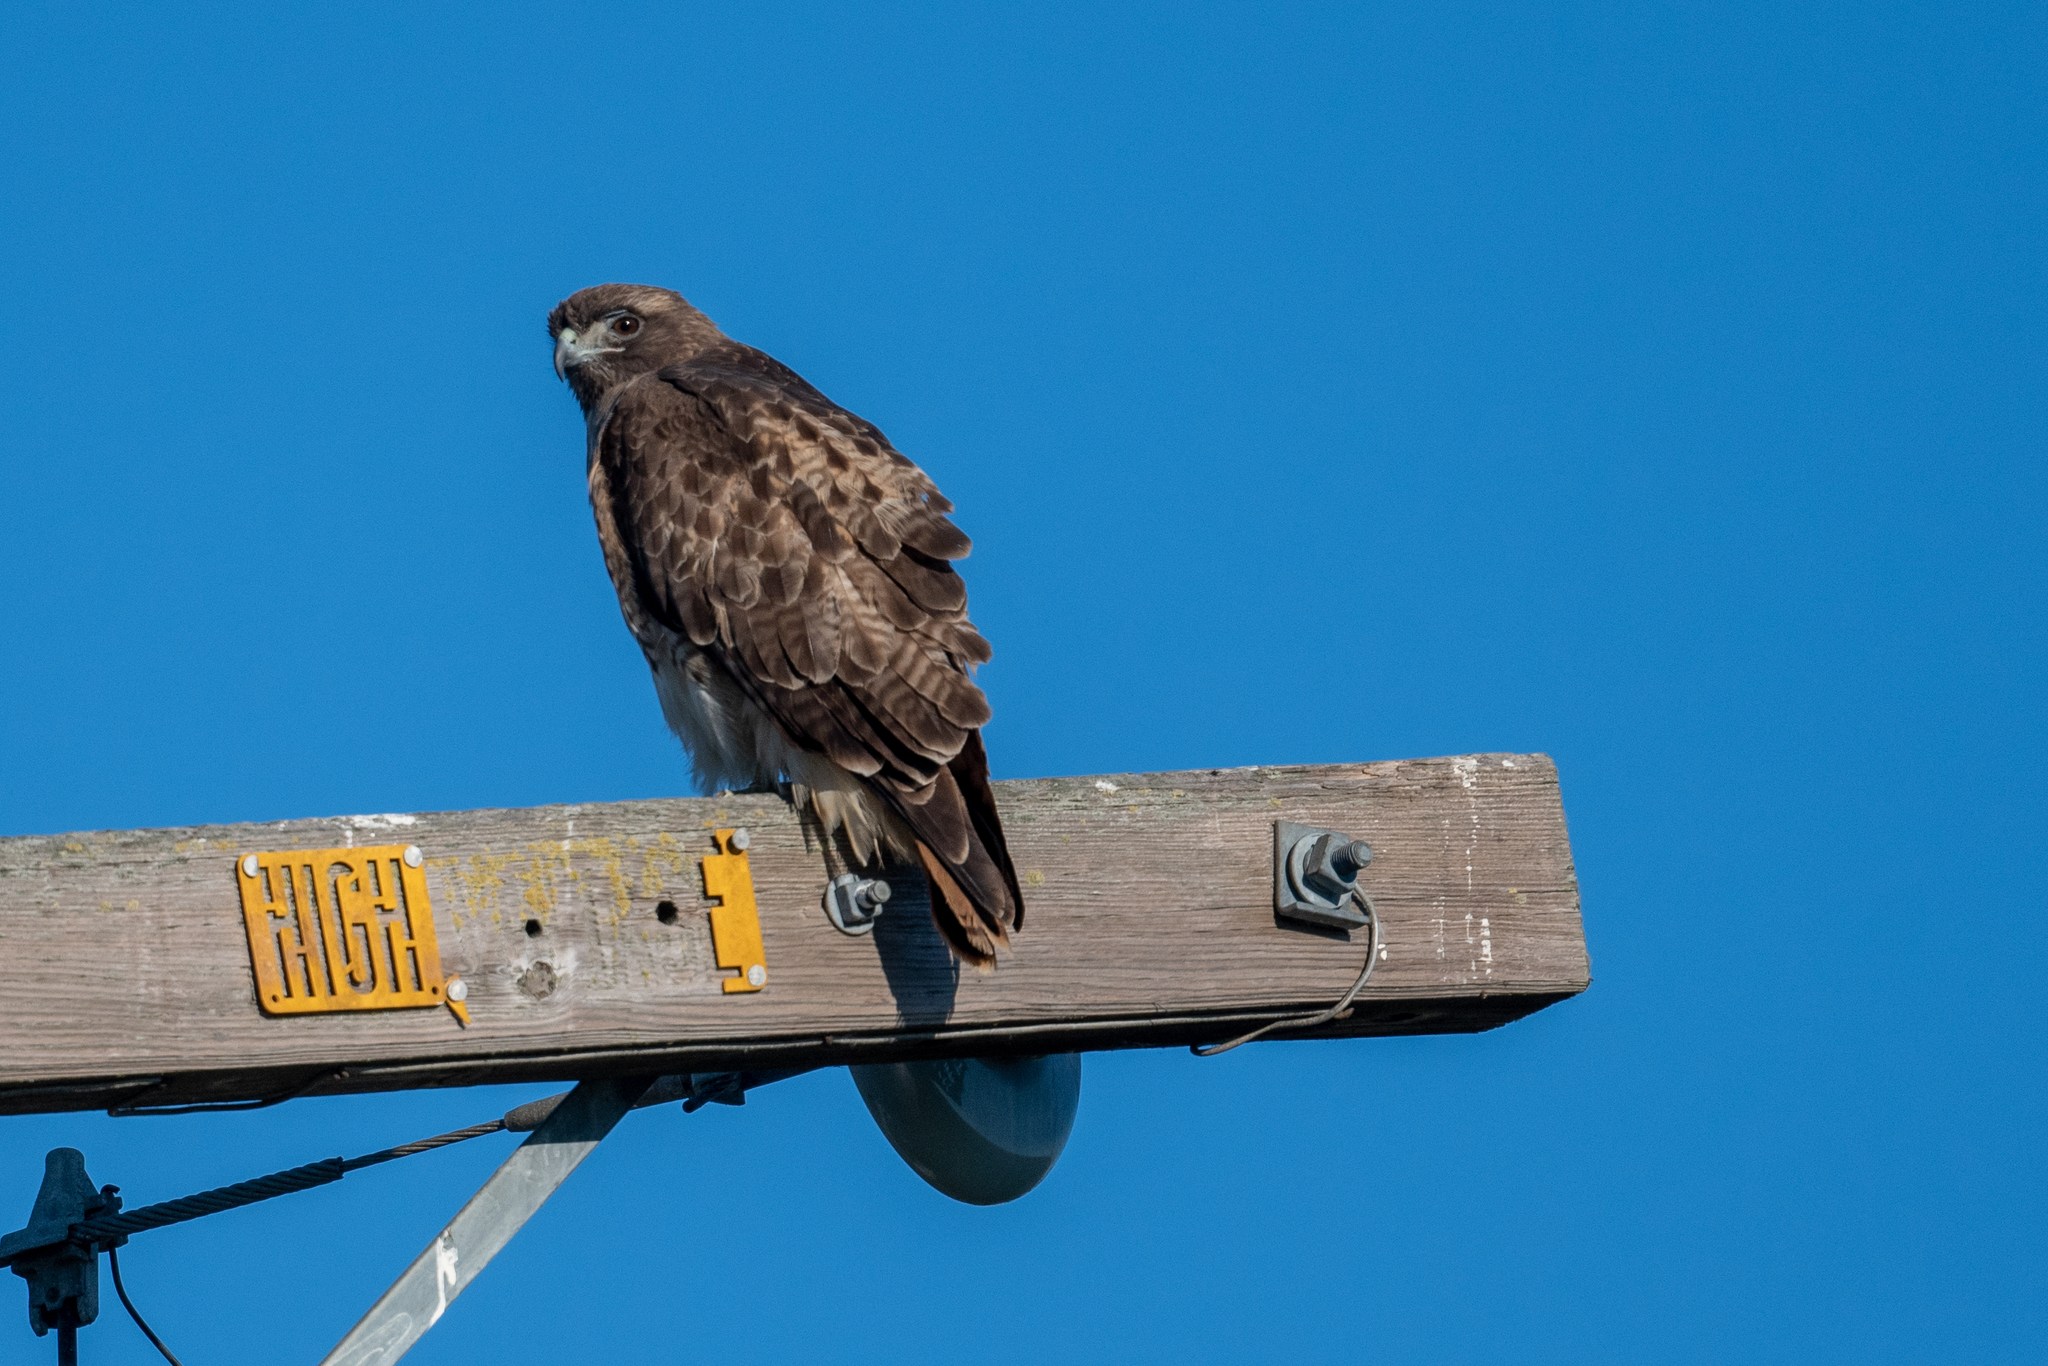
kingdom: Animalia
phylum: Chordata
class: Aves
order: Accipitriformes
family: Accipitridae
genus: Buteo
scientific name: Buteo jamaicensis
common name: Red-tailed hawk
